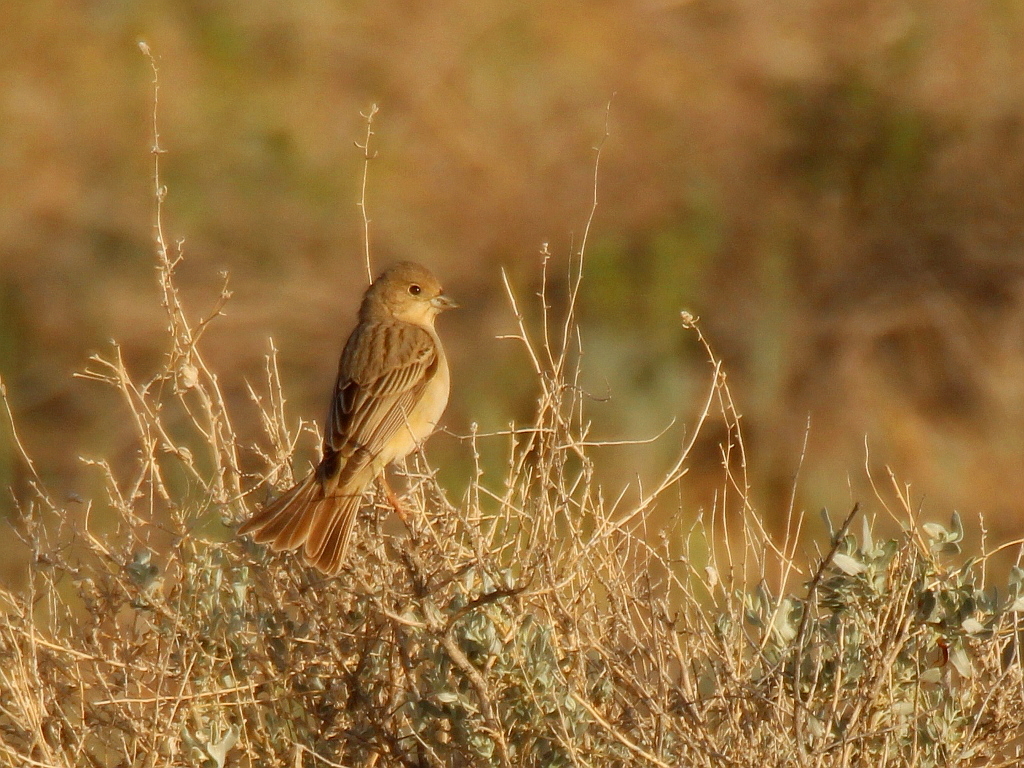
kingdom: Animalia
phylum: Chordata
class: Aves
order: Passeriformes
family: Emberizidae
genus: Emberiza
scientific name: Emberiza bruniceps
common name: Red-headed bunting
